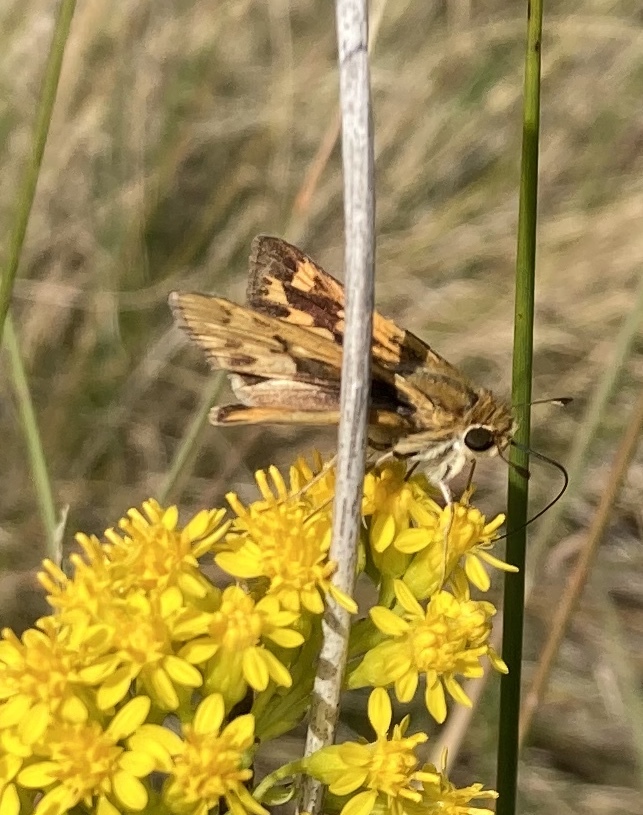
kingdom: Animalia
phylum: Arthropoda
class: Insecta
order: Lepidoptera
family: Hesperiidae
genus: Hylephila
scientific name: Hylephila phyleus
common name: Fiery skipper
